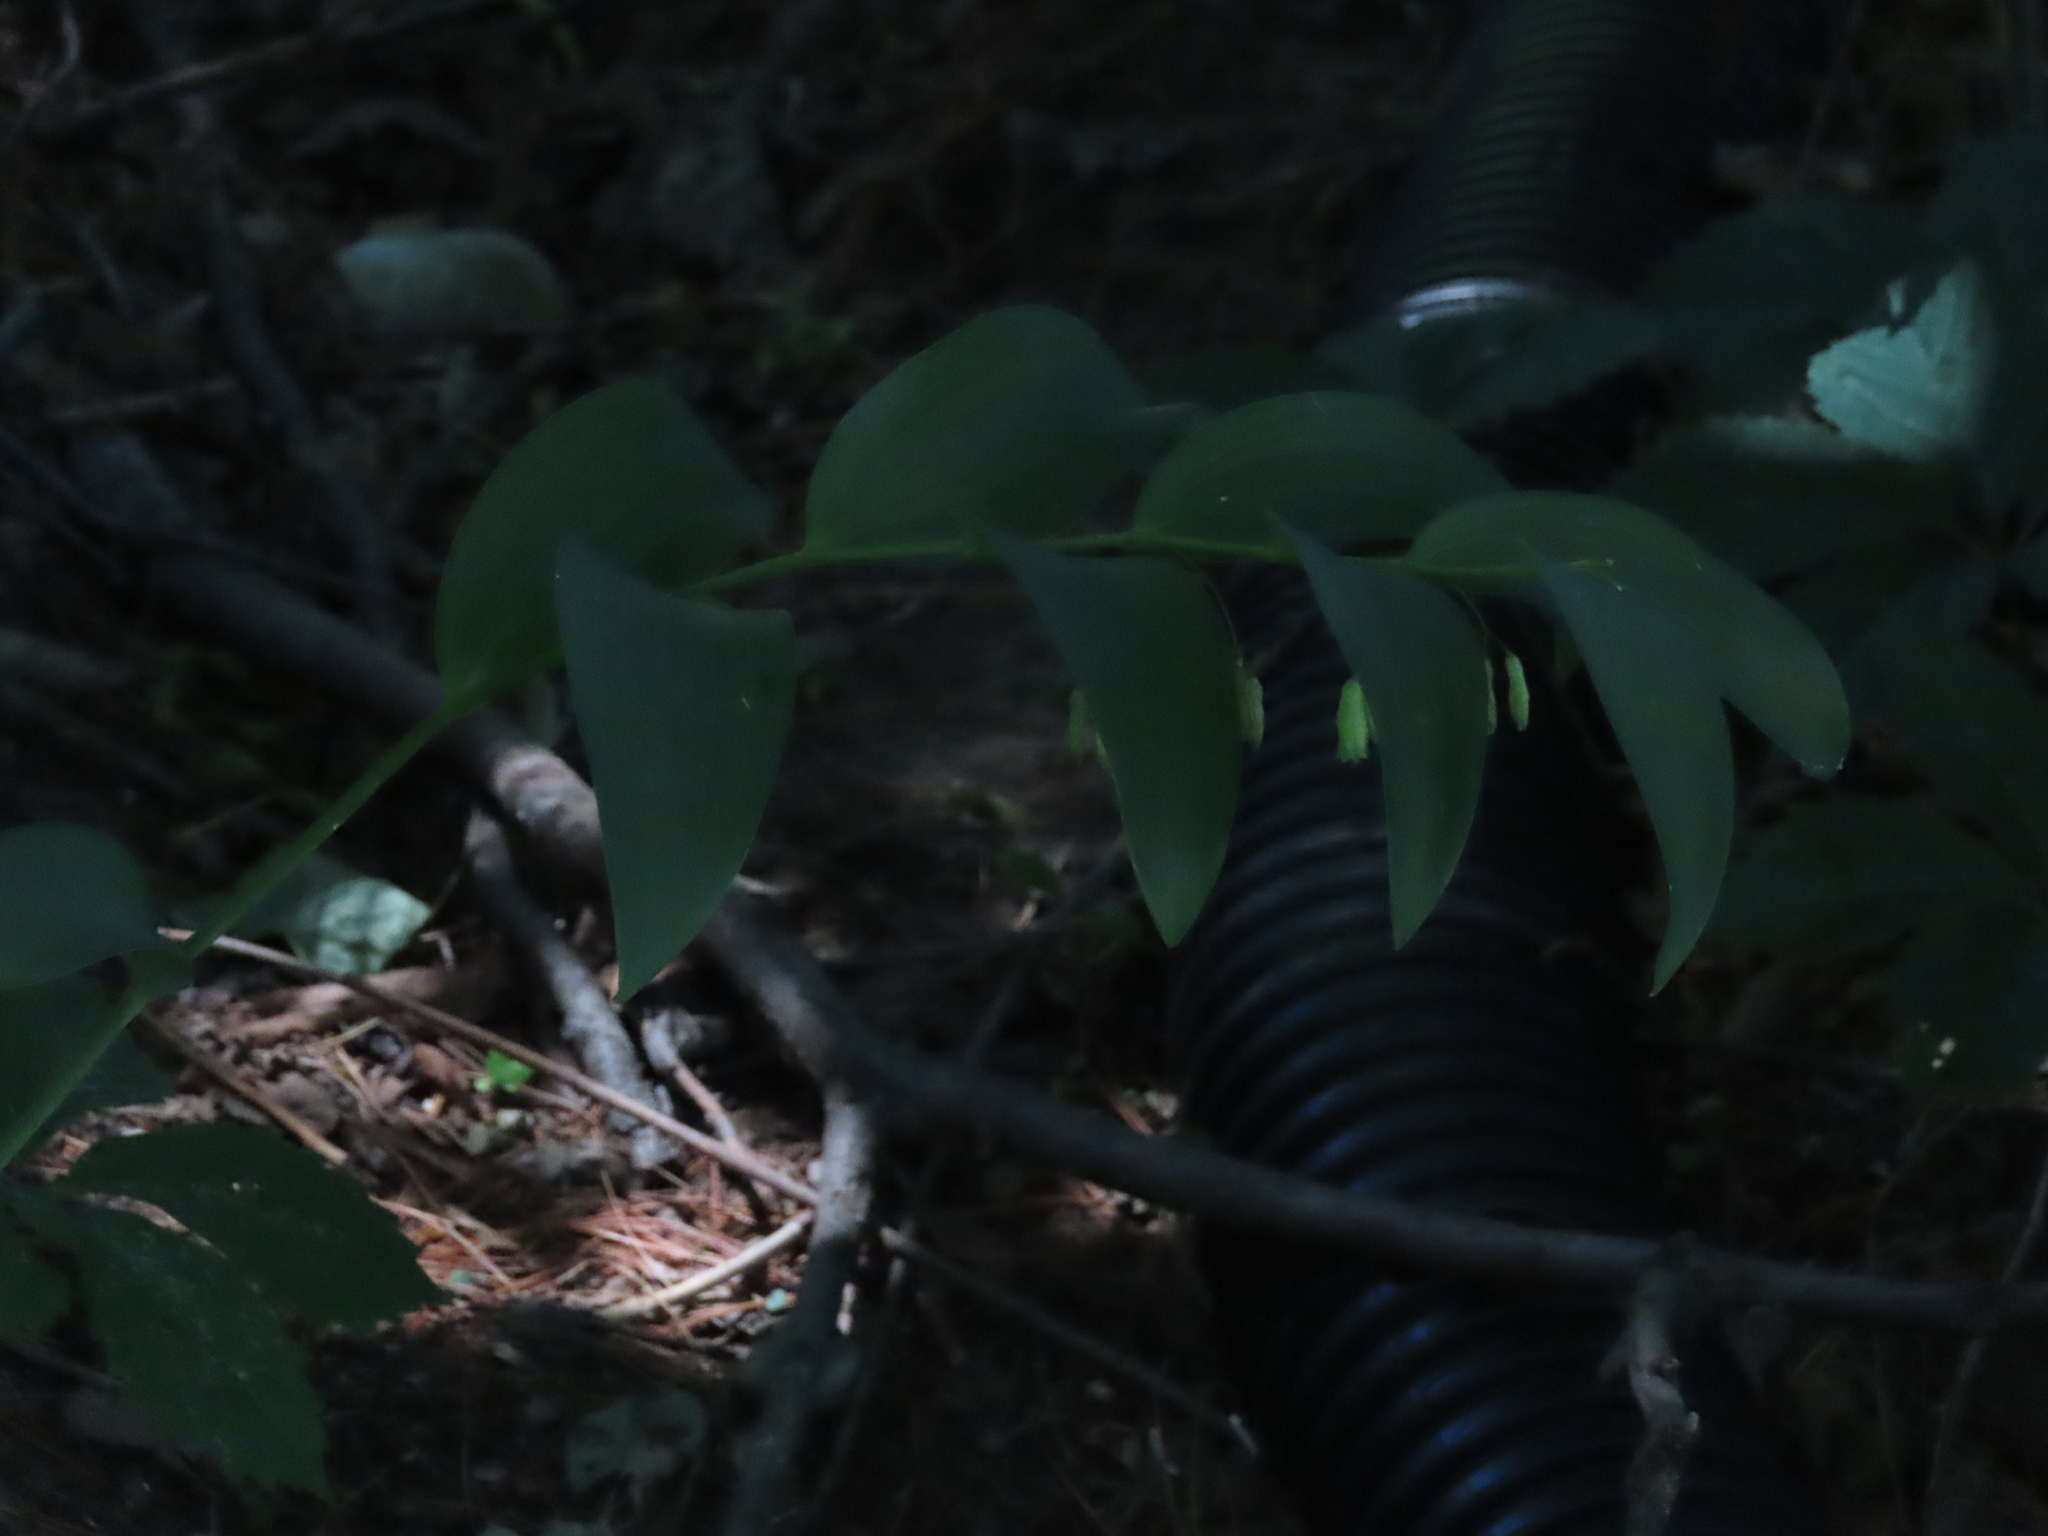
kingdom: Plantae
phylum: Tracheophyta
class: Liliopsida
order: Asparagales
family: Asparagaceae
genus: Polygonatum
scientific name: Polygonatum biflorum
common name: American solomon's-seal
